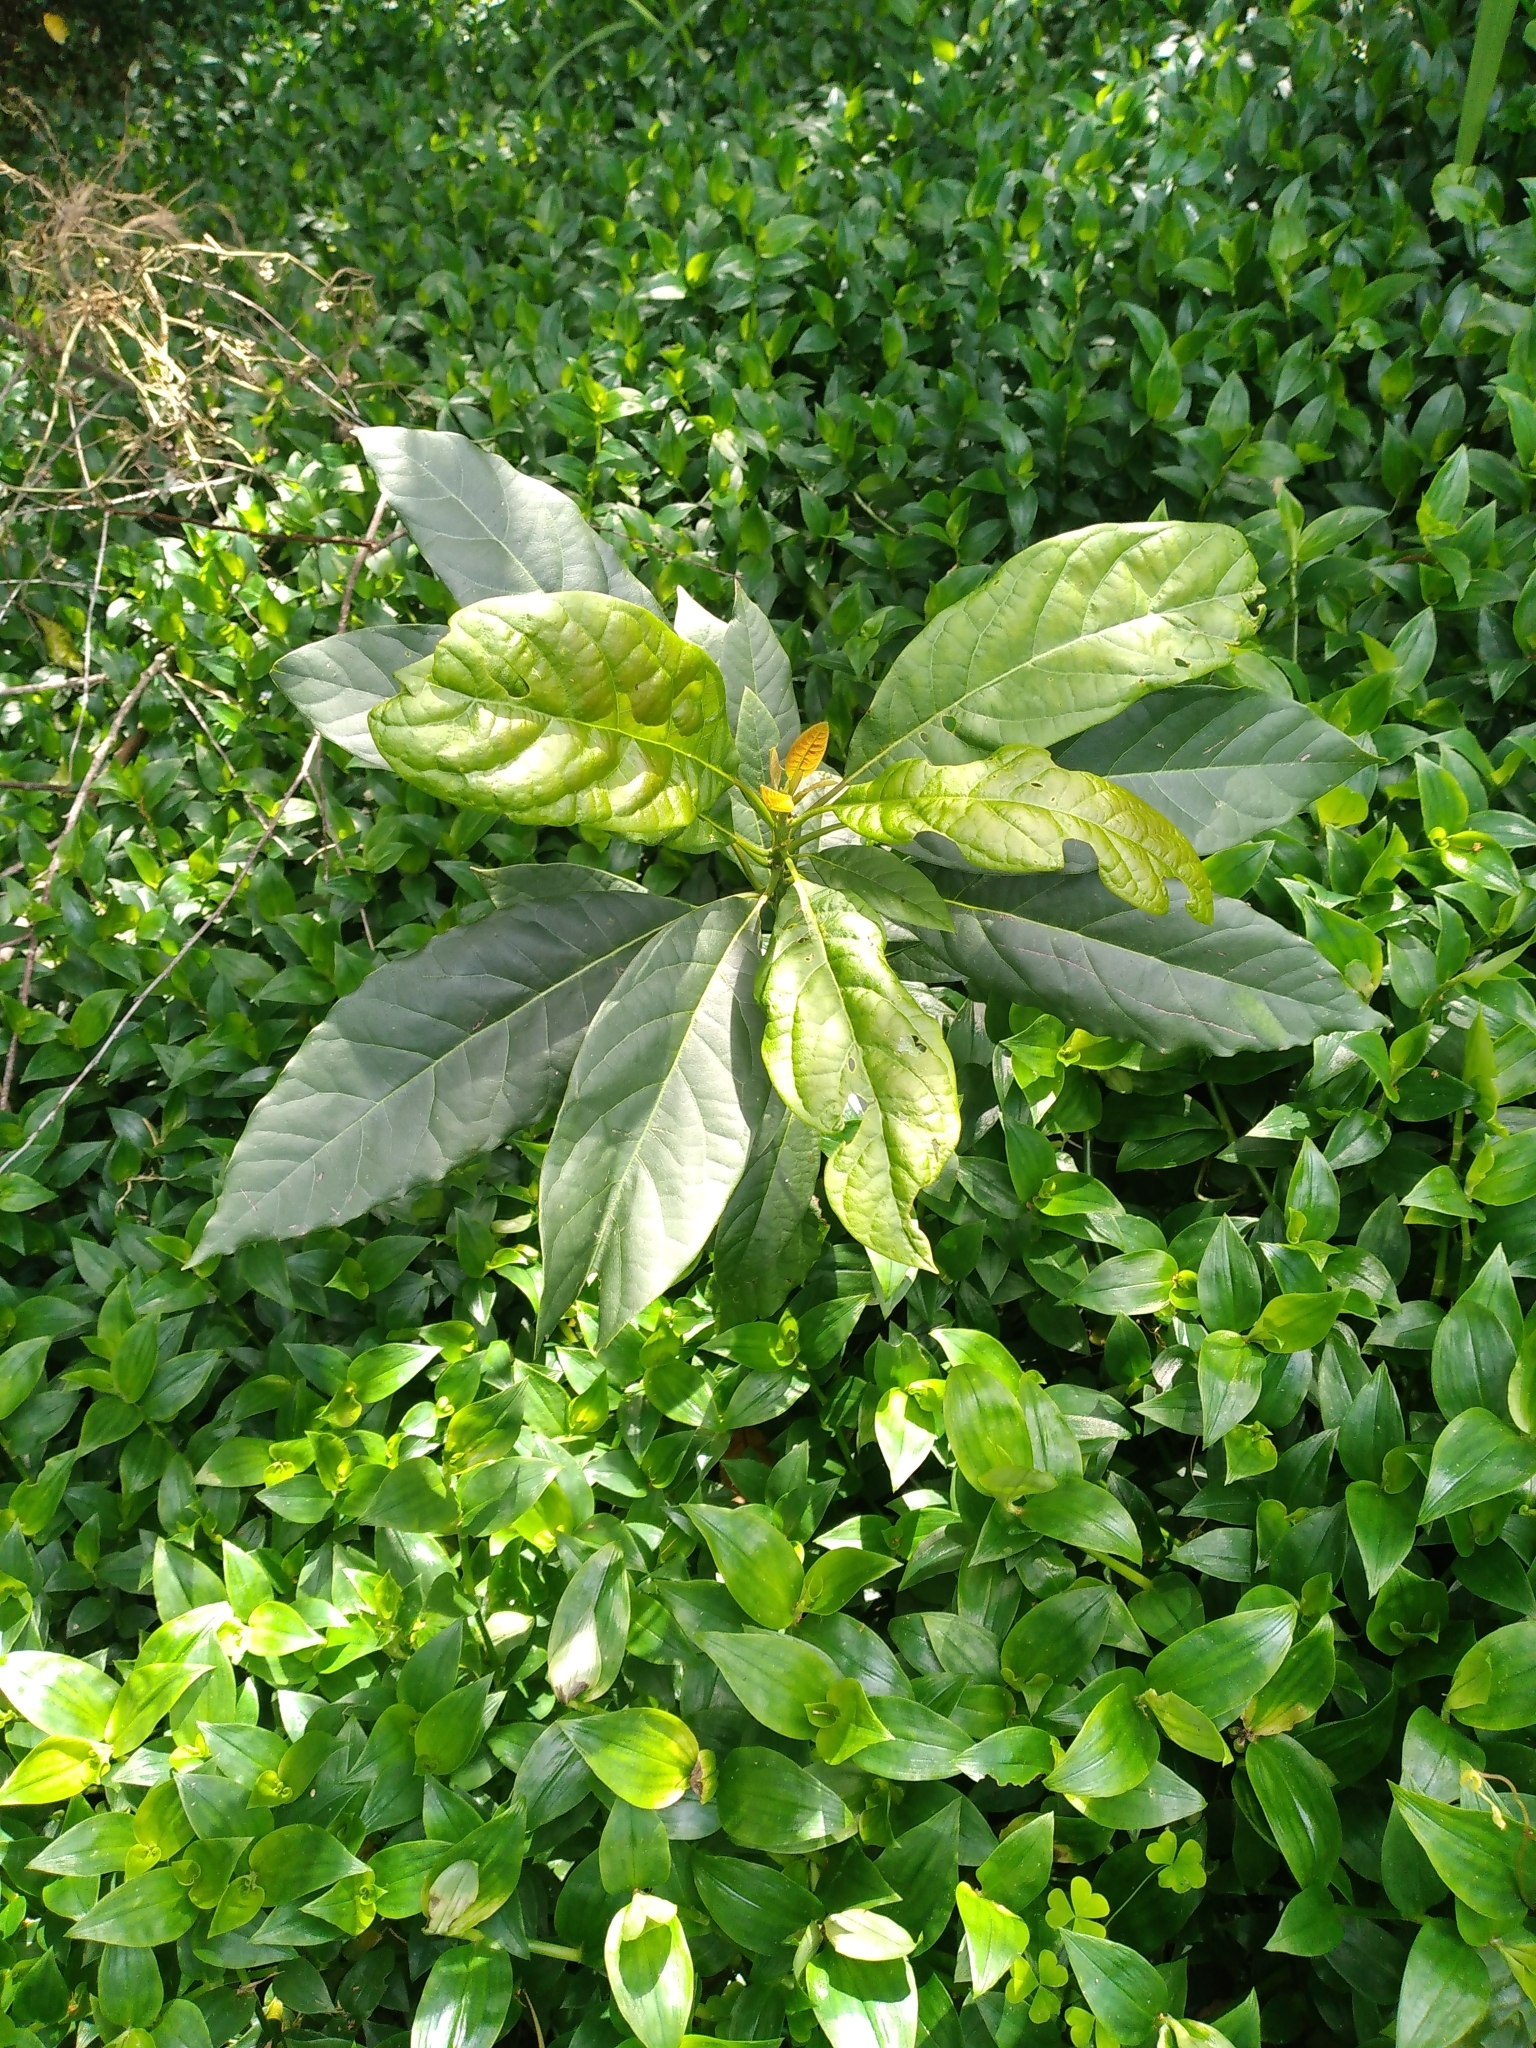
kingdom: Plantae
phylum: Tracheophyta
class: Magnoliopsida
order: Laurales
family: Lauraceae
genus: Persea
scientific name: Persea americana
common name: Avocado
